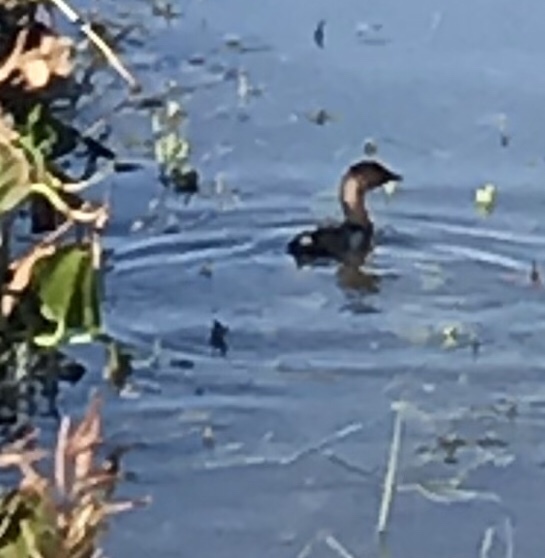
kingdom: Animalia
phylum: Chordata
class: Aves
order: Podicipediformes
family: Podicipedidae
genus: Podilymbus
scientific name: Podilymbus podiceps
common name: Pied-billed grebe
